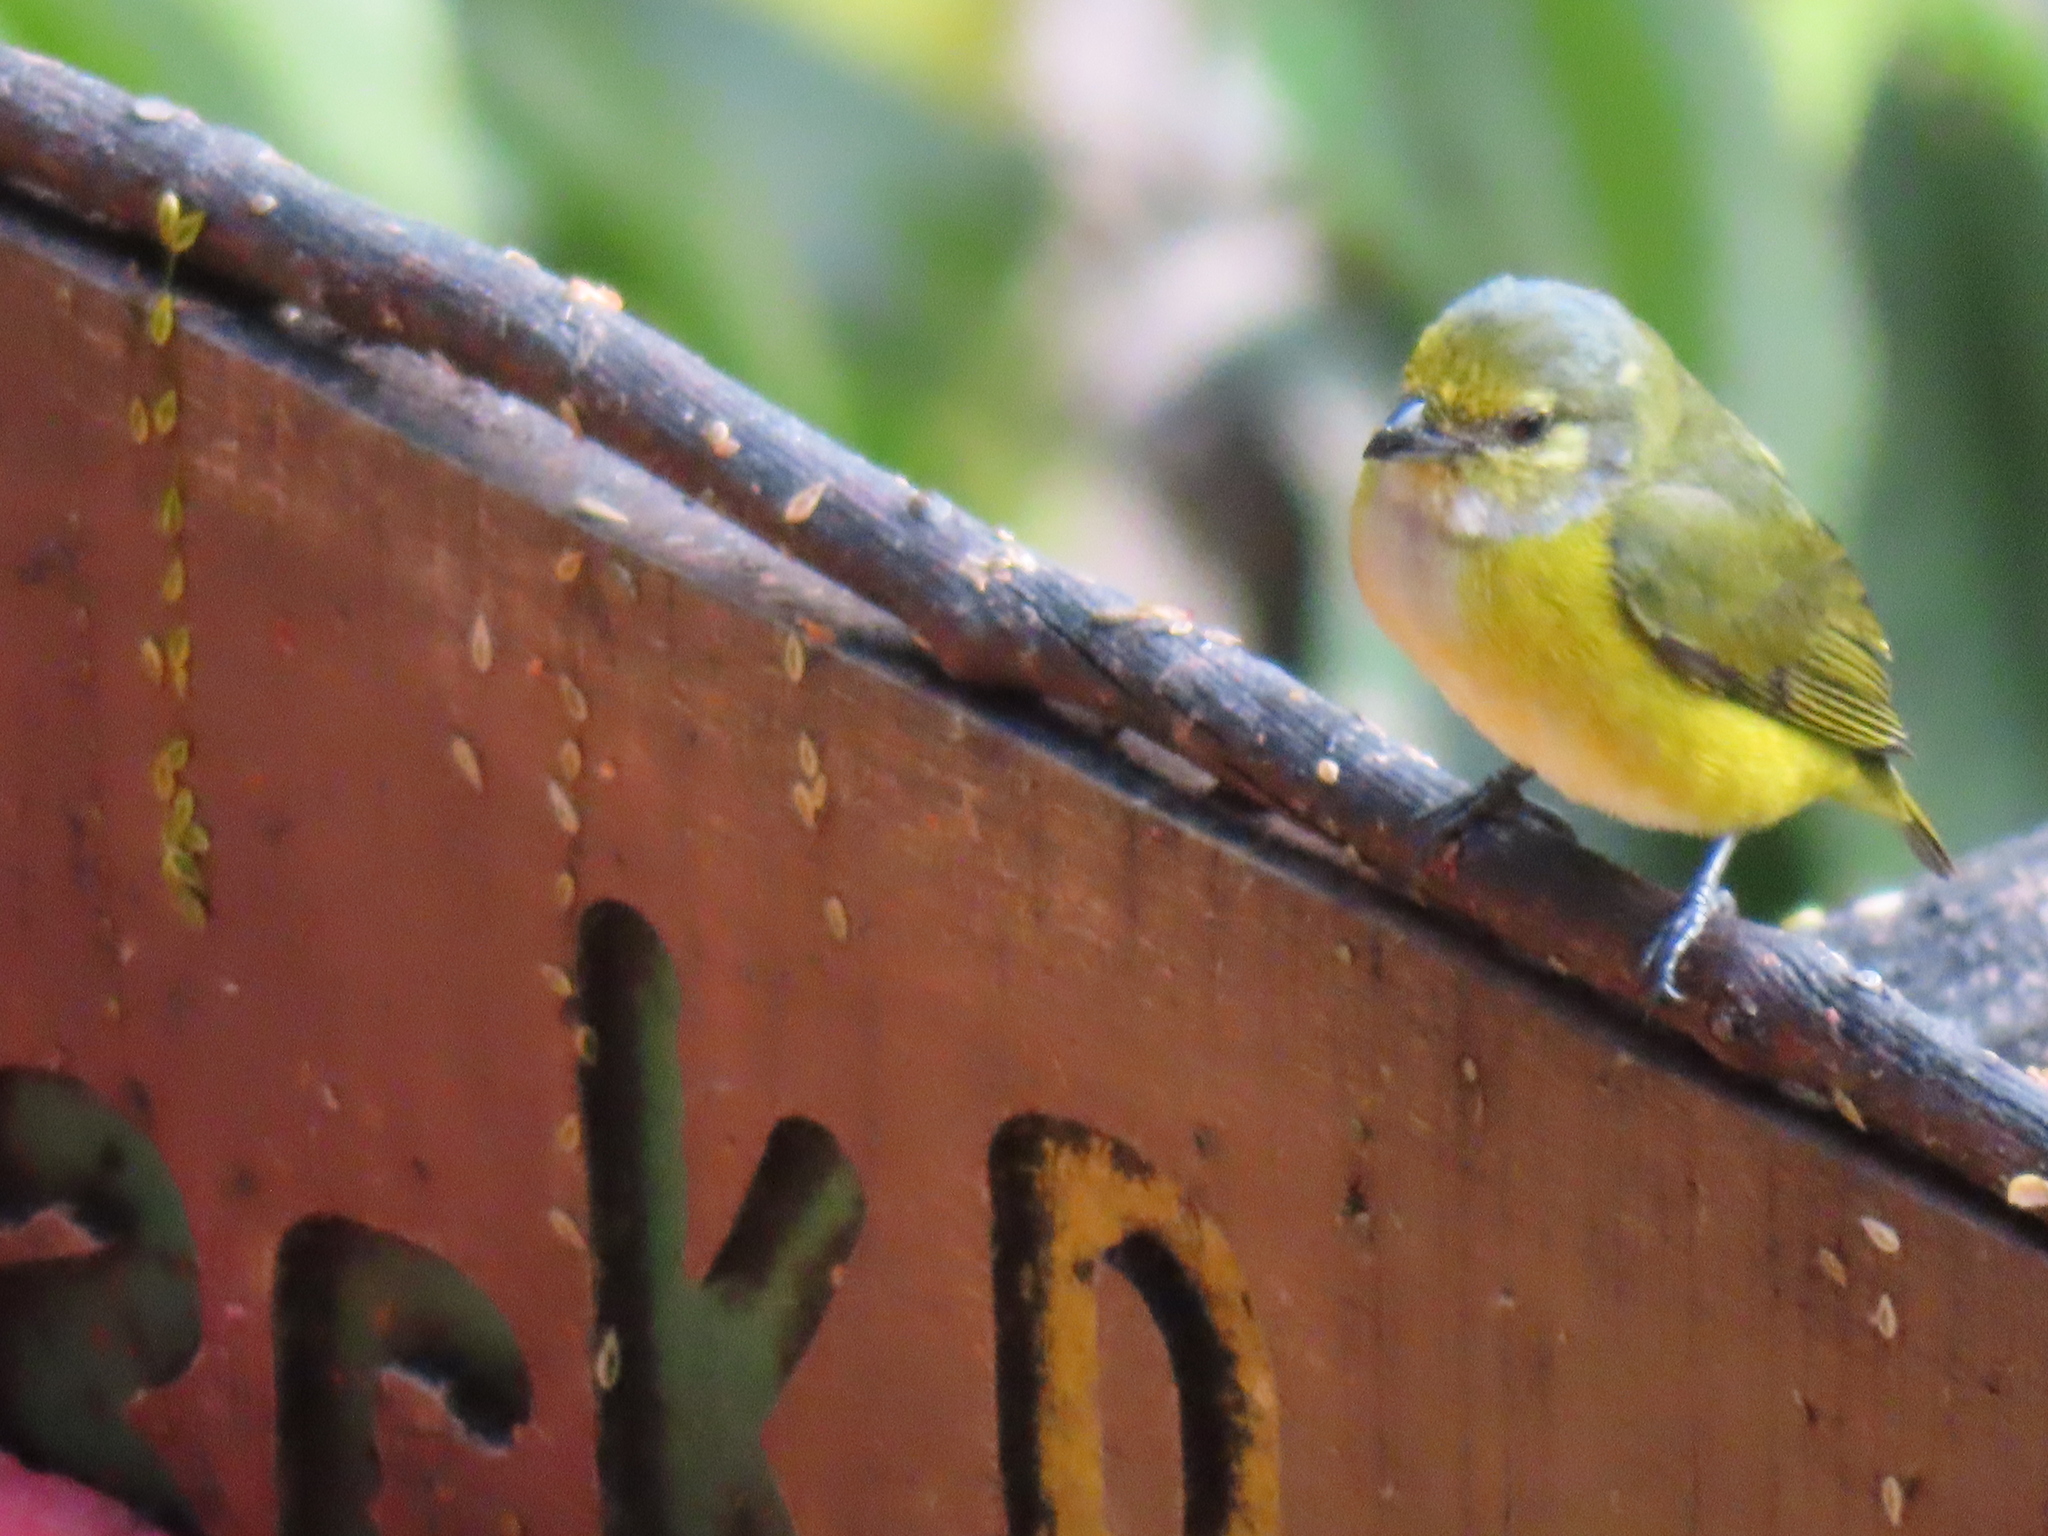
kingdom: Animalia
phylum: Chordata
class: Aves
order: Passeriformes
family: Fringillidae
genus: Euphonia
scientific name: Euphonia hirundinacea
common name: Yellow-throated euphonia
